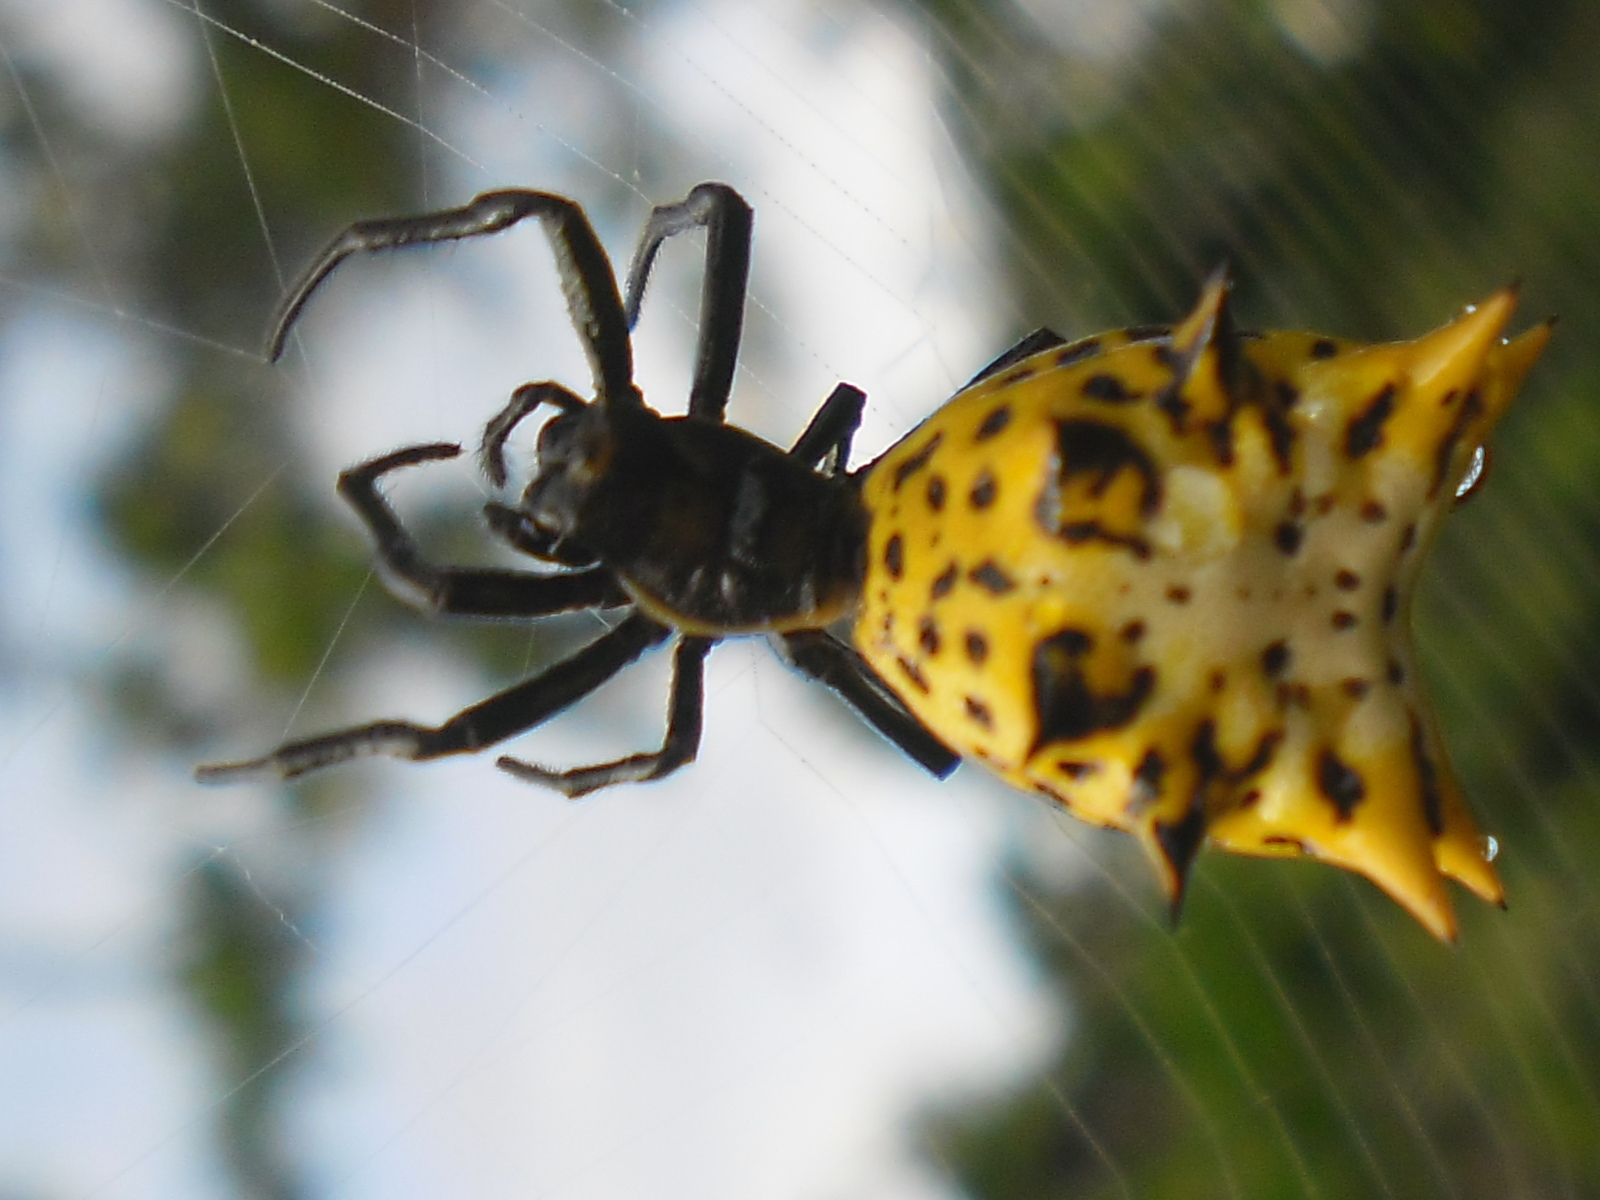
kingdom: Animalia
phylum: Arthropoda
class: Arachnida
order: Araneae
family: Araneidae
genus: Micrathena
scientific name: Micrathena gracilis
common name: Orb weavers
